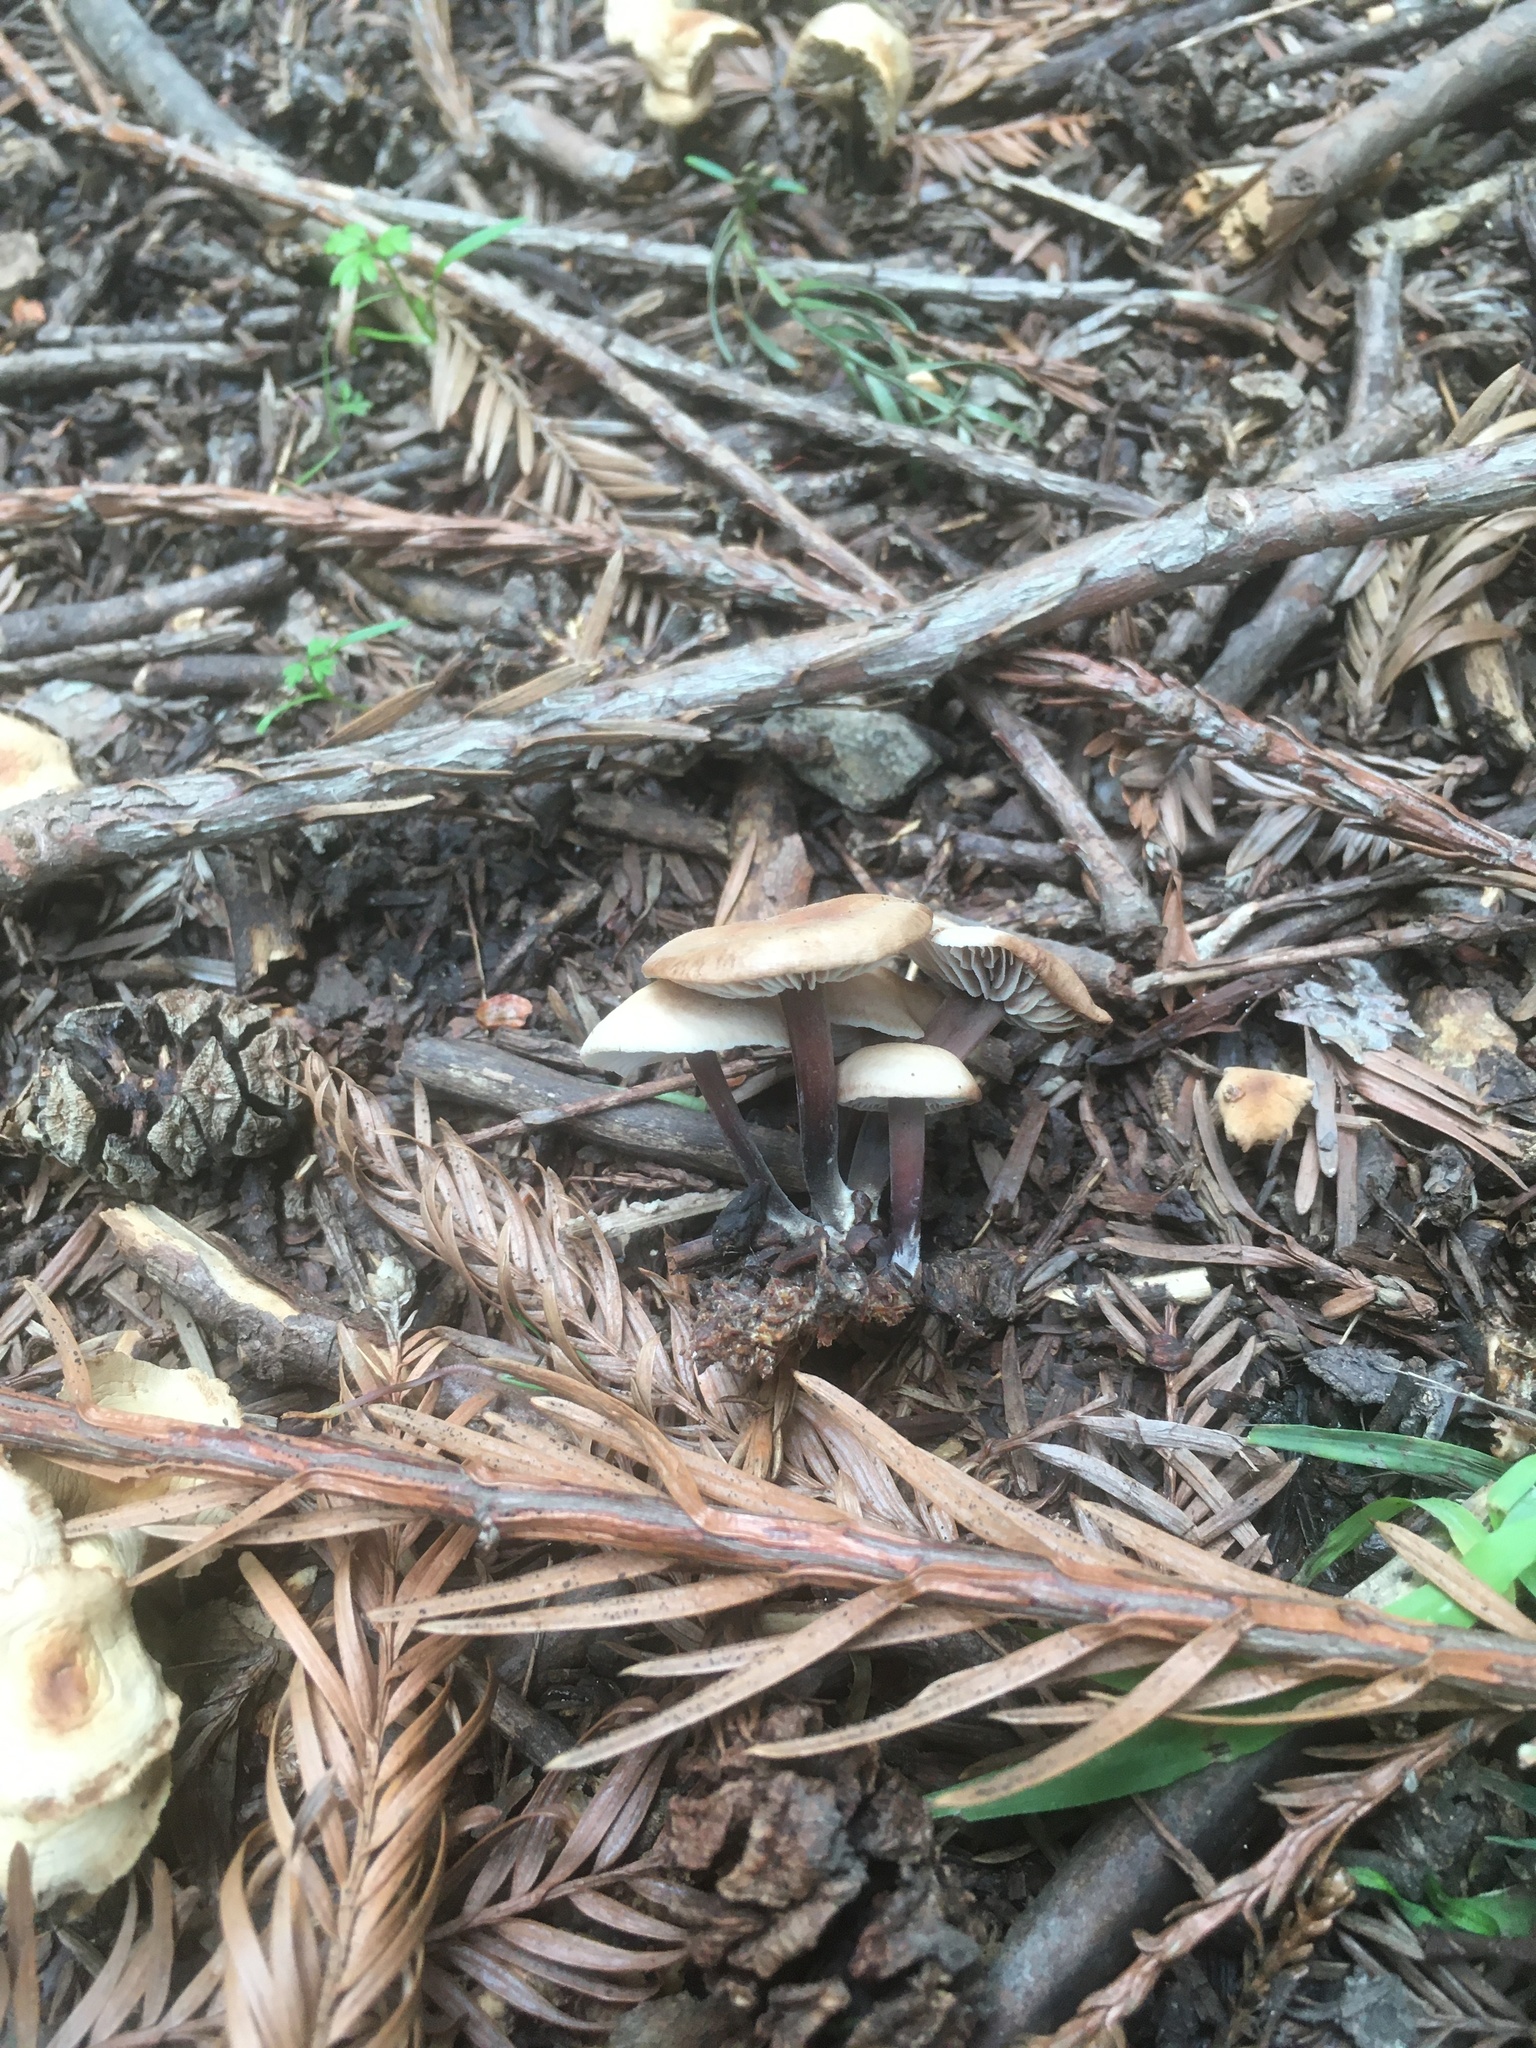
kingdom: Fungi
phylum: Basidiomycota
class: Agaricomycetes
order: Agaricales
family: Omphalotaceae
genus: Gymnopus
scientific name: Gymnopus brassicolens
